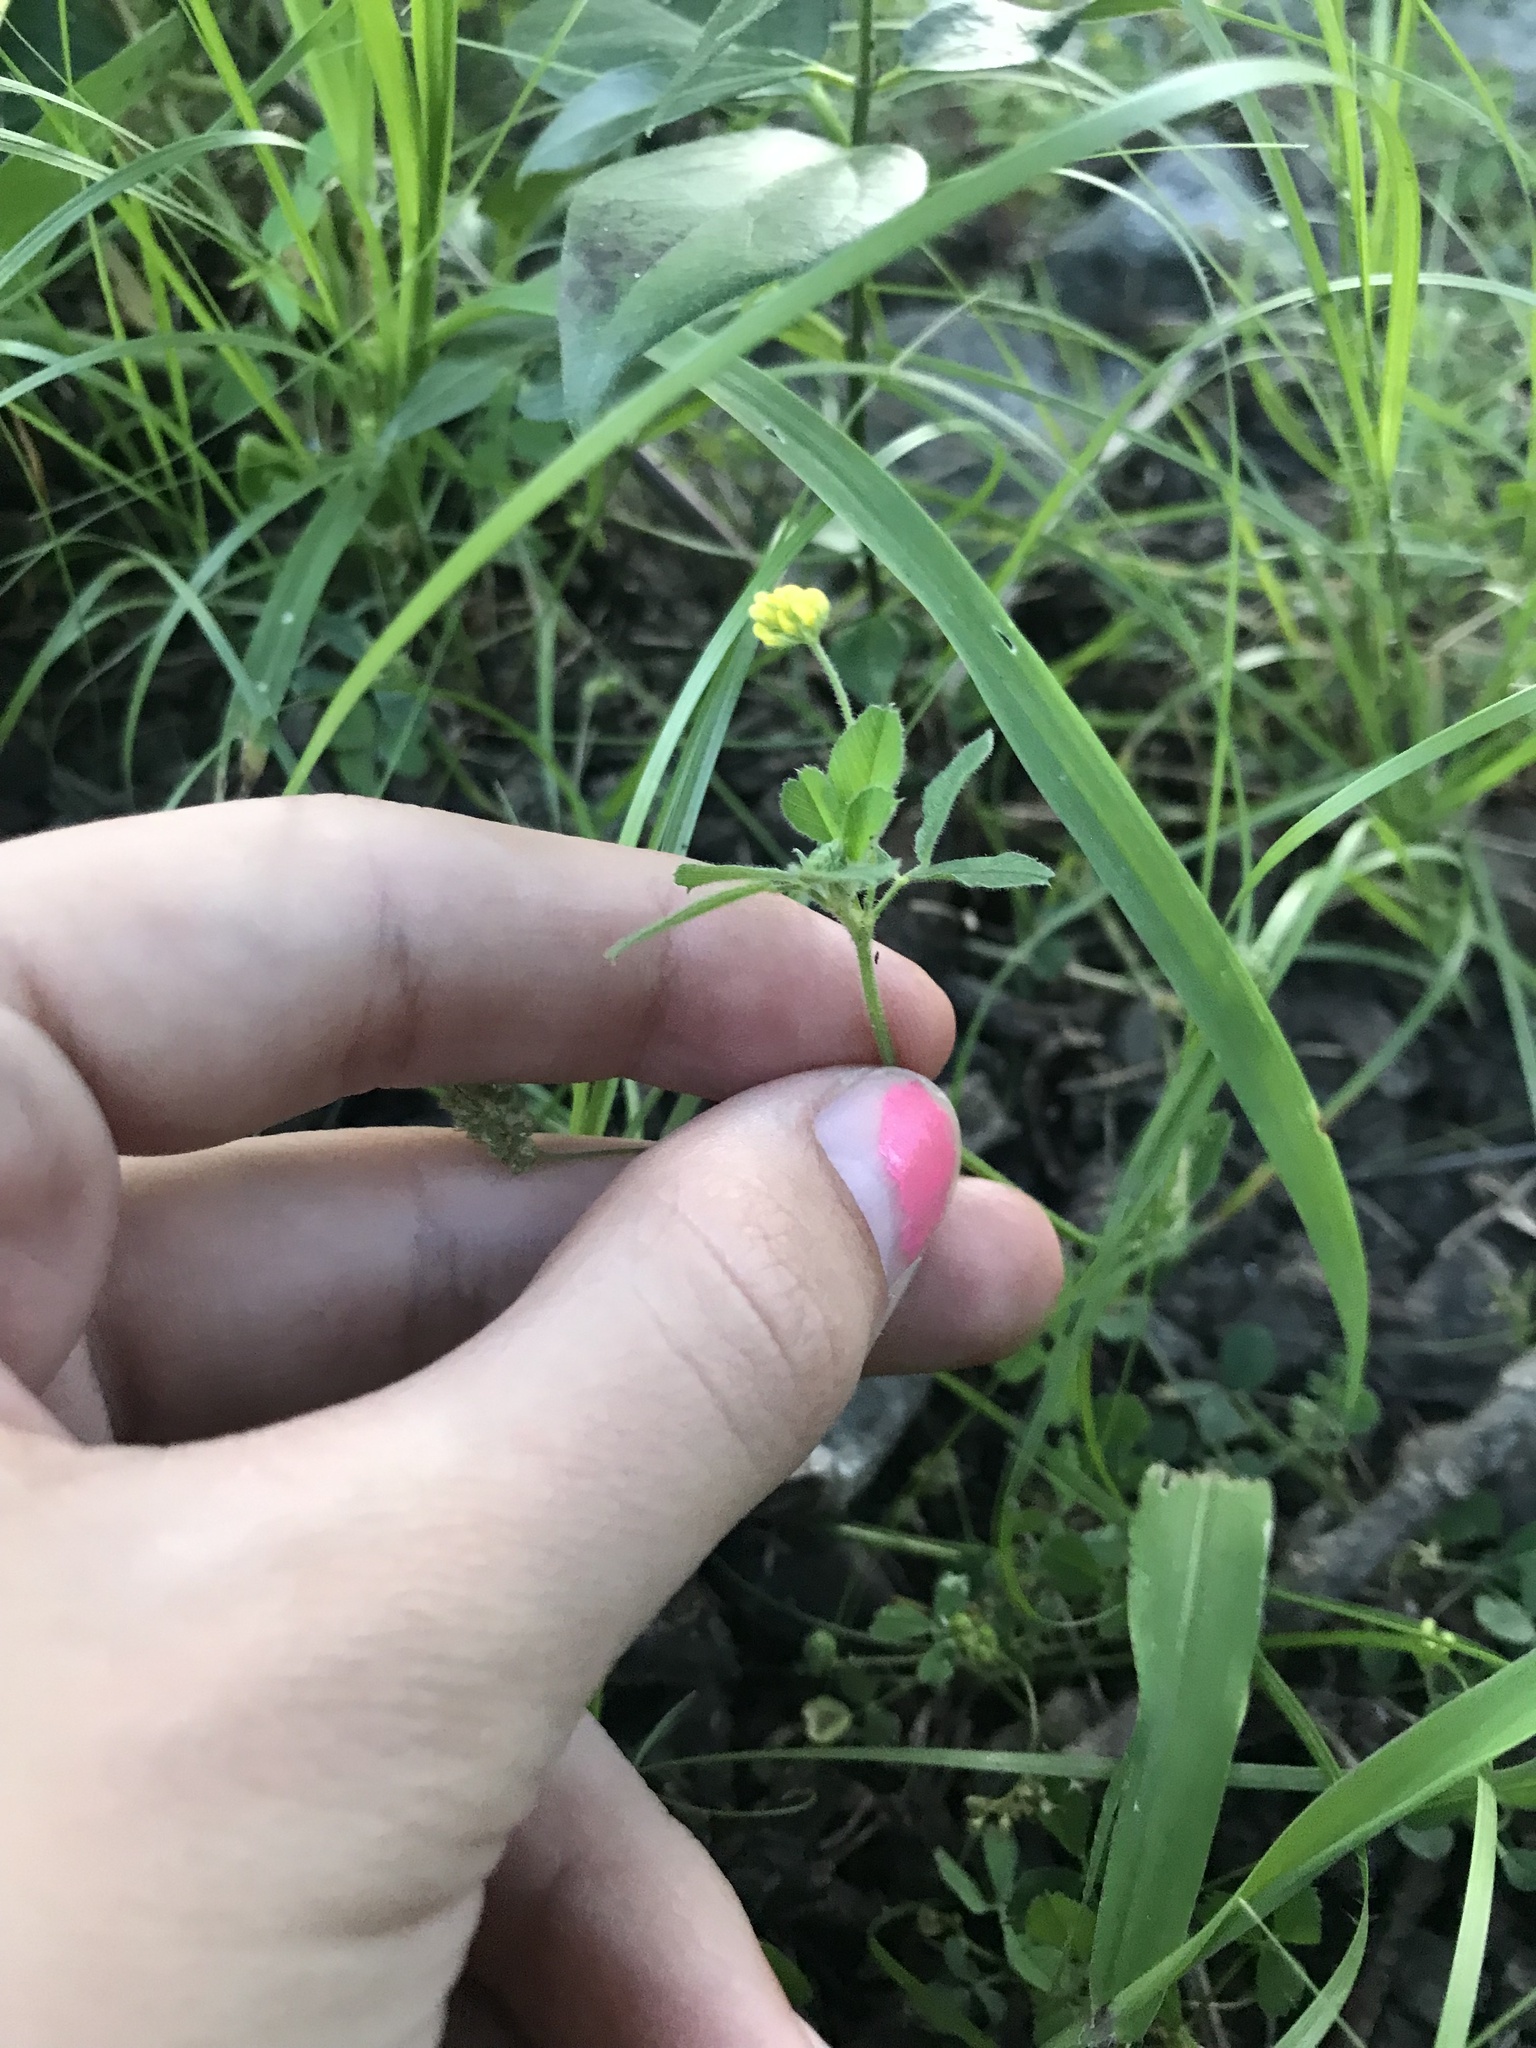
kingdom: Plantae
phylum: Tracheophyta
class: Magnoliopsida
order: Fabales
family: Fabaceae
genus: Medicago
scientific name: Medicago lupulina
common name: Black medick
